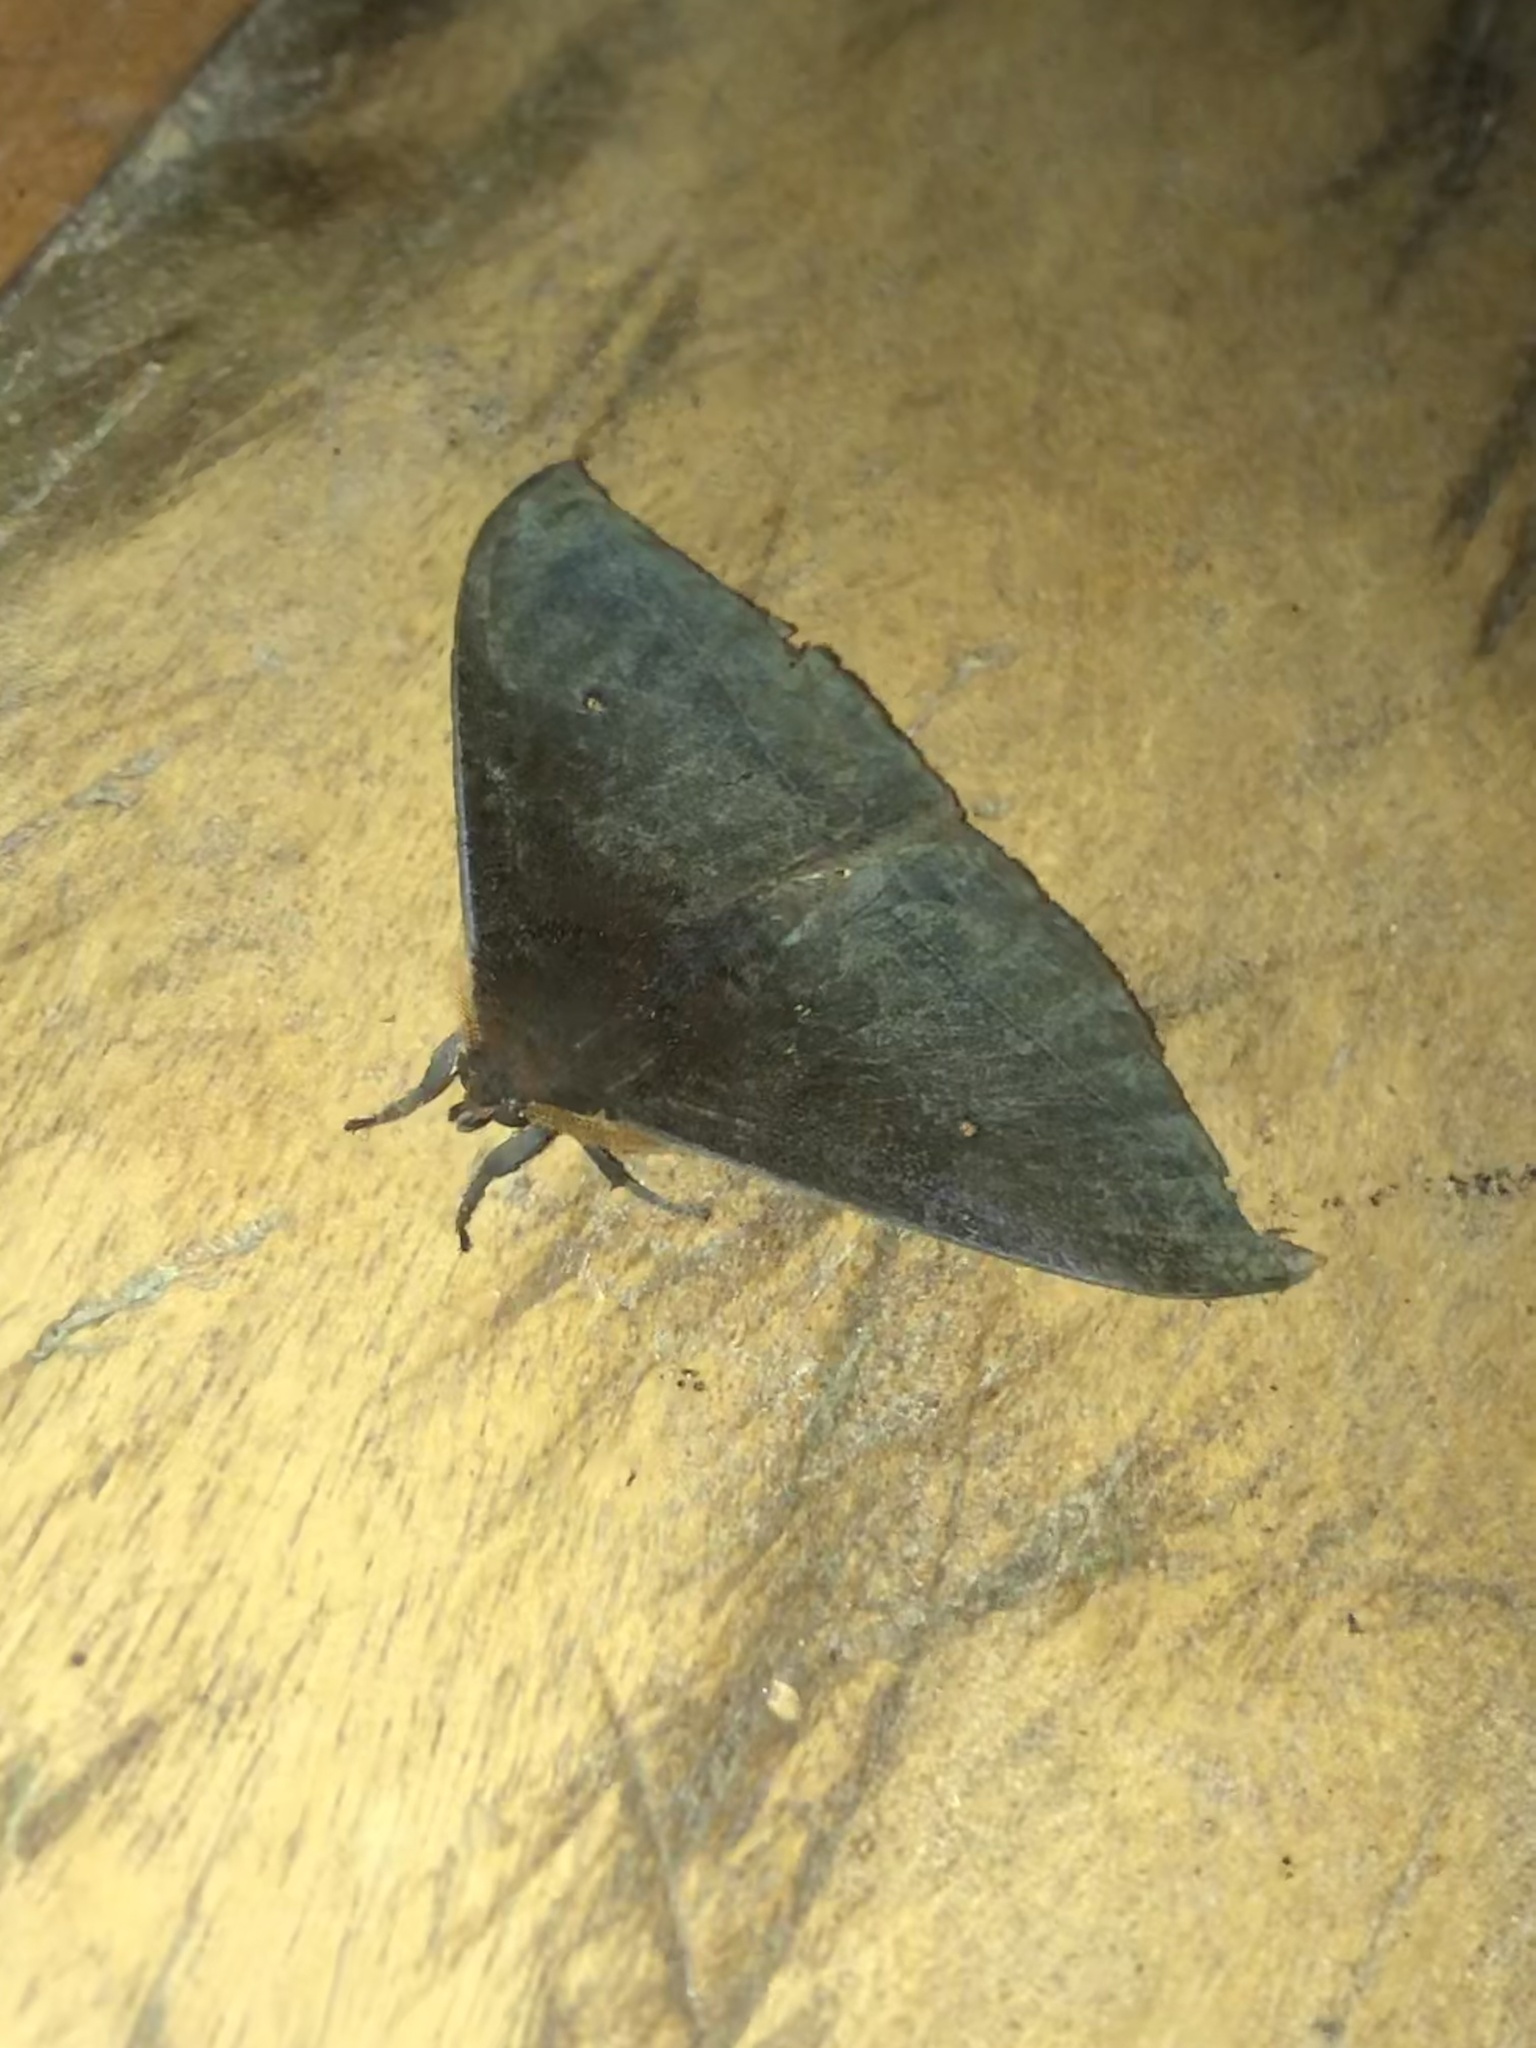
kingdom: Animalia
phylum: Arthropoda
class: Insecta
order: Lepidoptera
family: Saturniidae
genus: Gamelia
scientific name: Gamelia rubriluna
